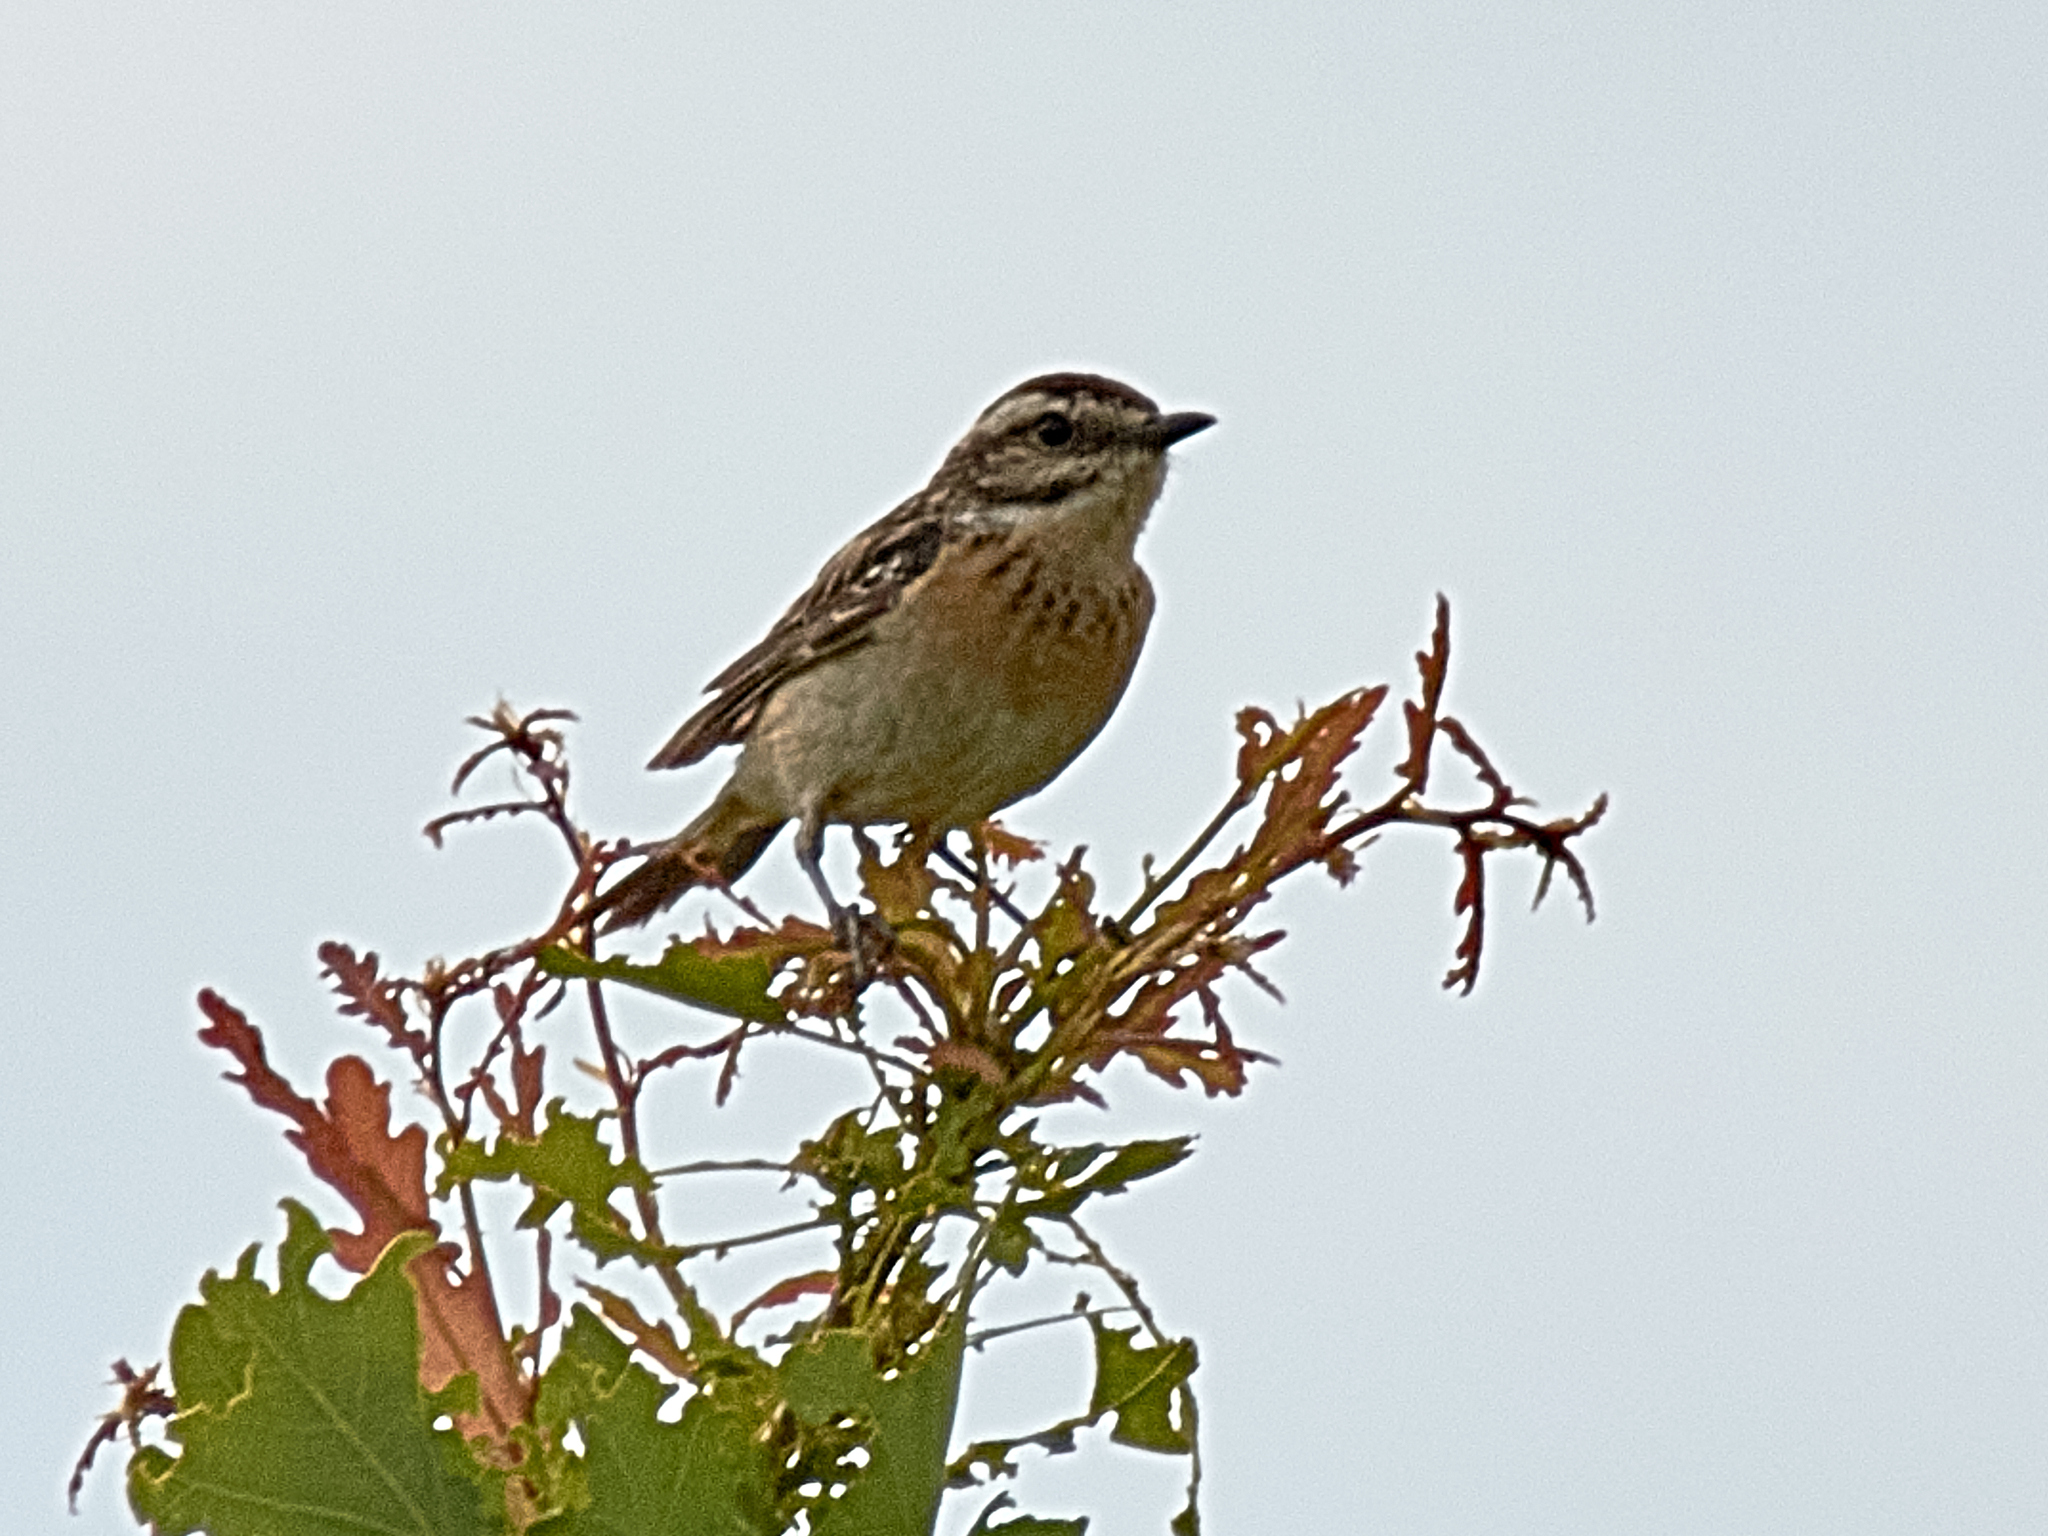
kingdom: Animalia
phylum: Chordata
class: Aves
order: Passeriformes
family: Muscicapidae
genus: Saxicola
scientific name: Saxicola rubetra
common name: Whinchat
